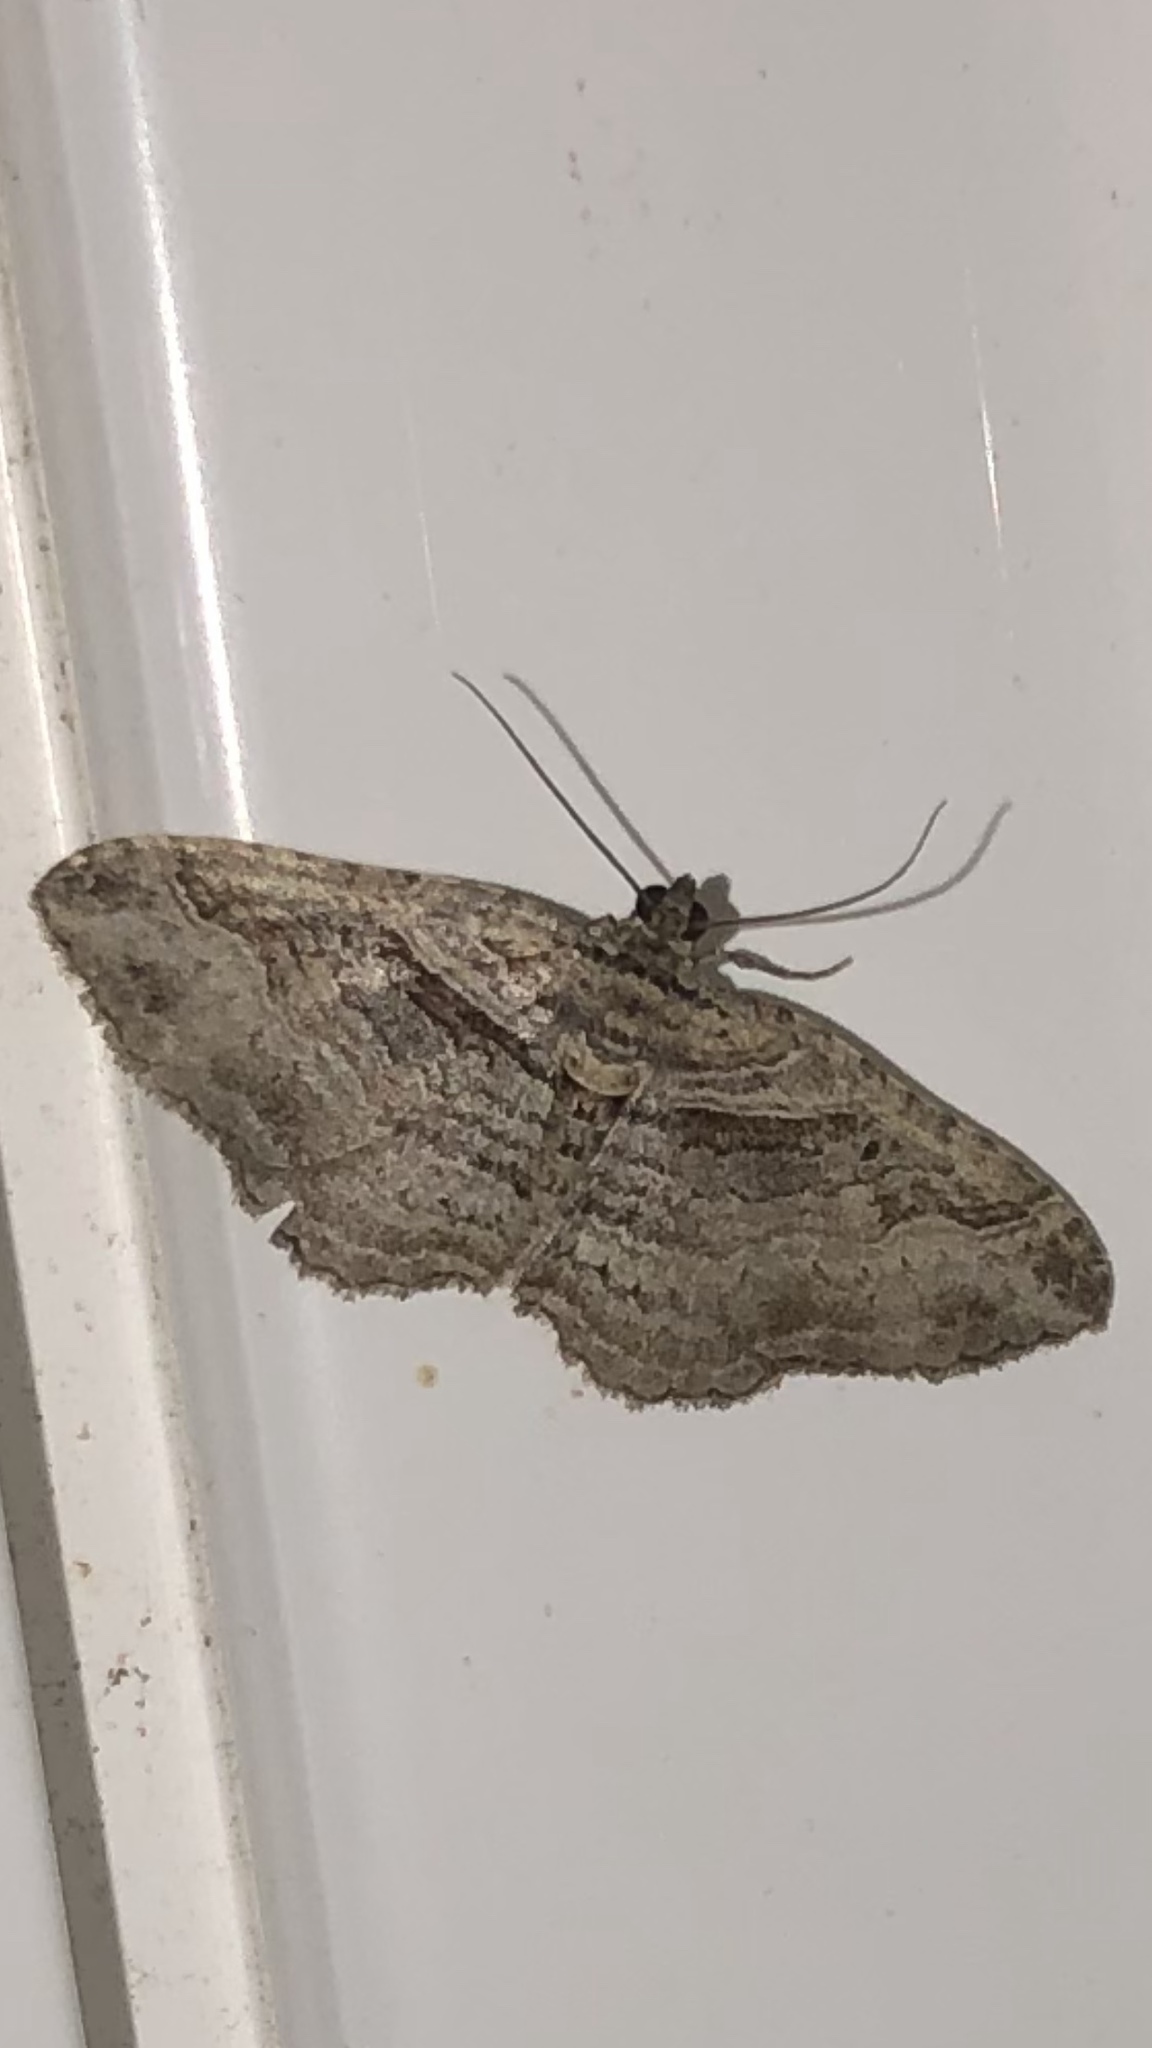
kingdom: Animalia
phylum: Arthropoda
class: Insecta
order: Lepidoptera
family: Geometridae
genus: Costaconvexa
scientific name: Costaconvexa centrostrigaria
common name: Bent-line carpet
